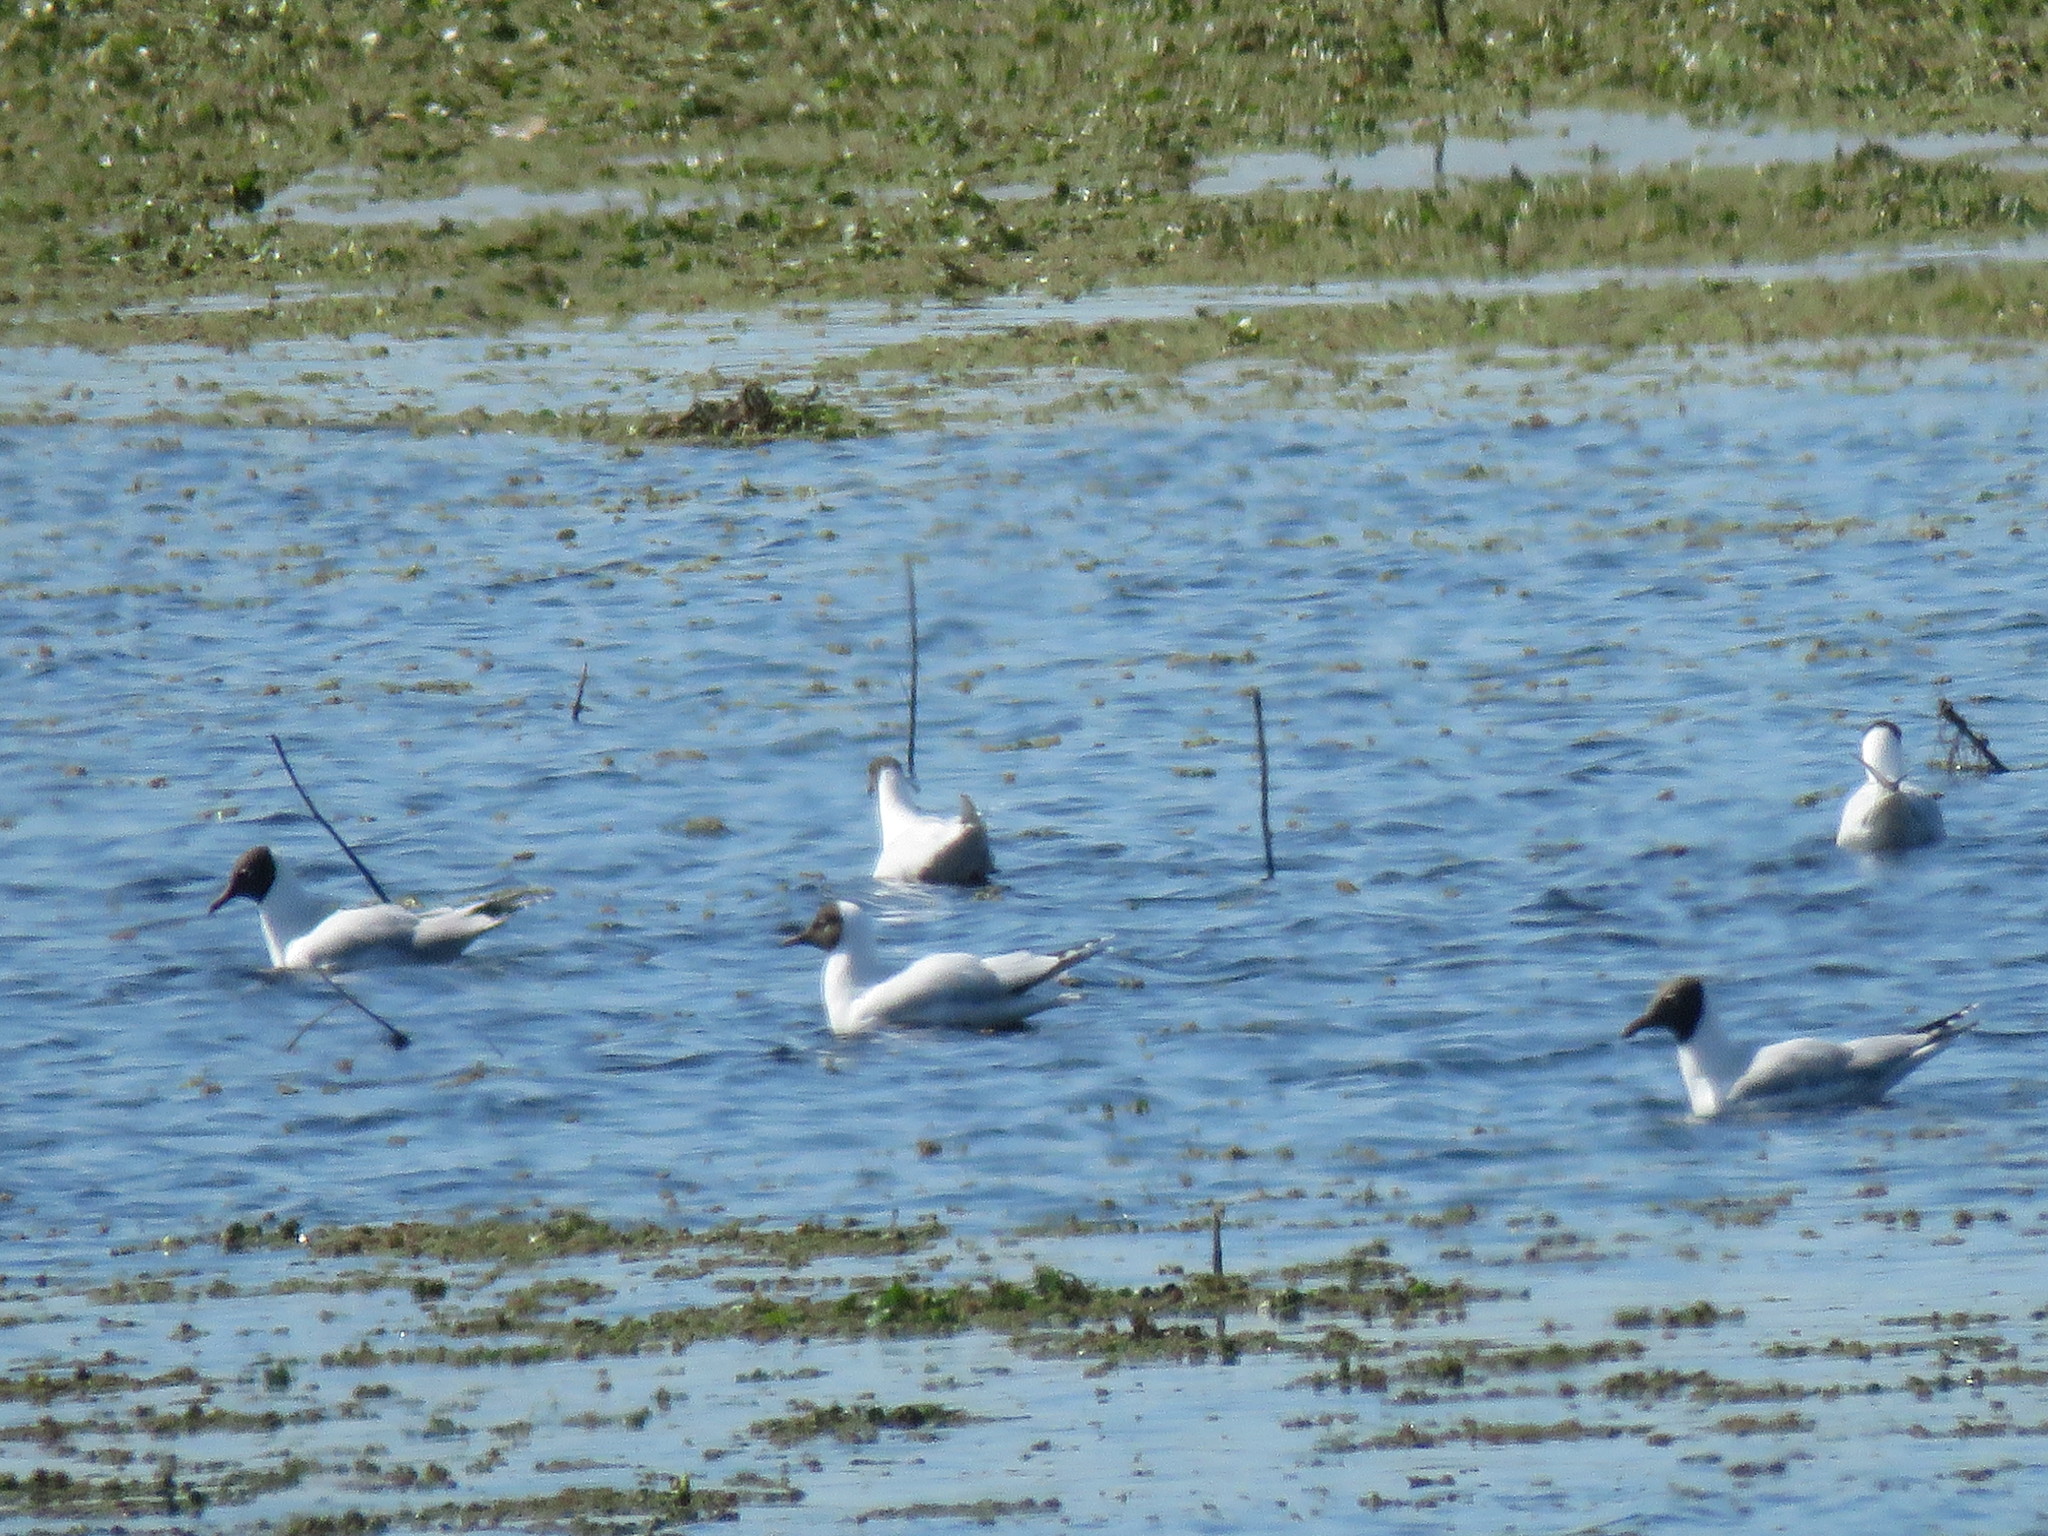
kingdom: Animalia
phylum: Chordata
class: Aves
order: Charadriiformes
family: Laridae
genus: Chroicocephalus
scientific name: Chroicocephalus maculipennis
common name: Brown-hooded gull
